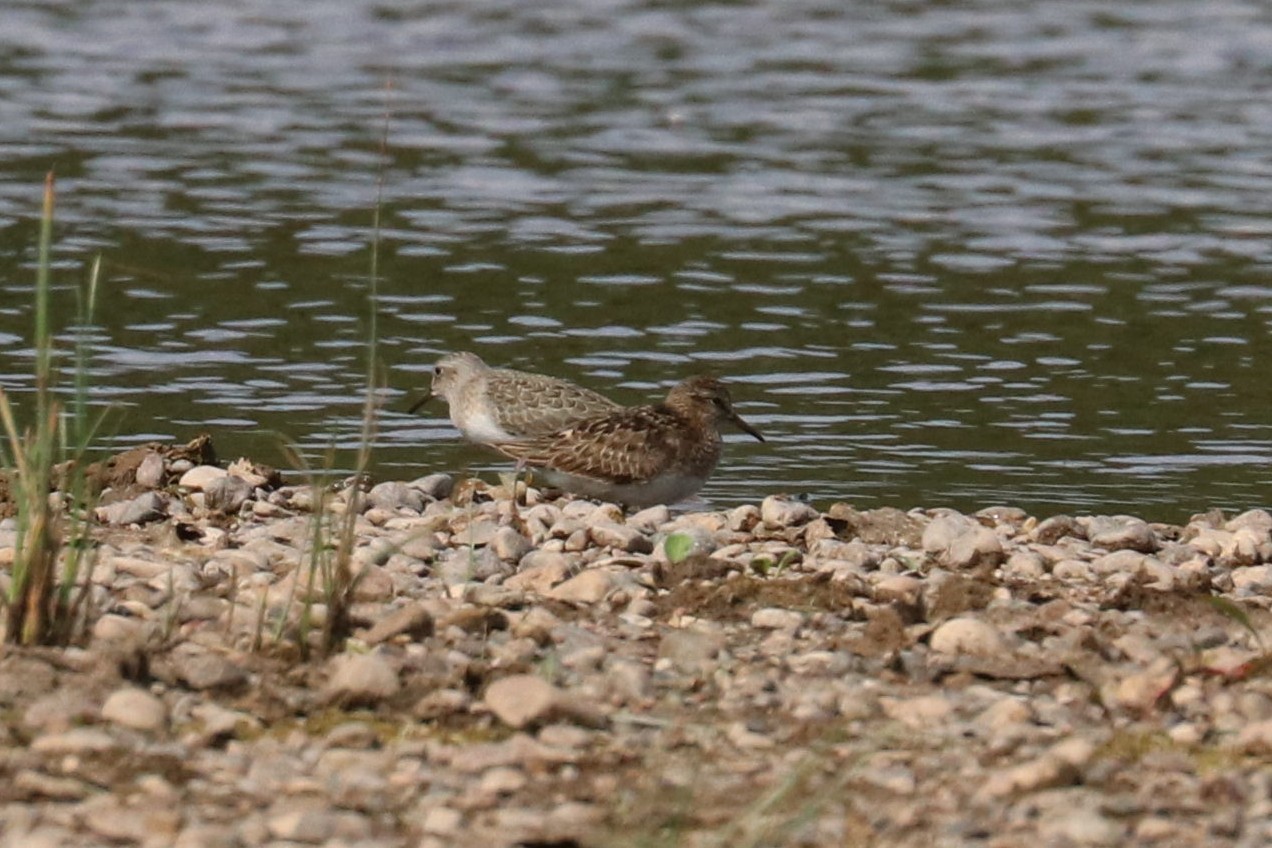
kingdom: Animalia
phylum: Chordata
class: Aves
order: Charadriiformes
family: Scolopacidae
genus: Calidris
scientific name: Calidris temminckii
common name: Temminck's stint
